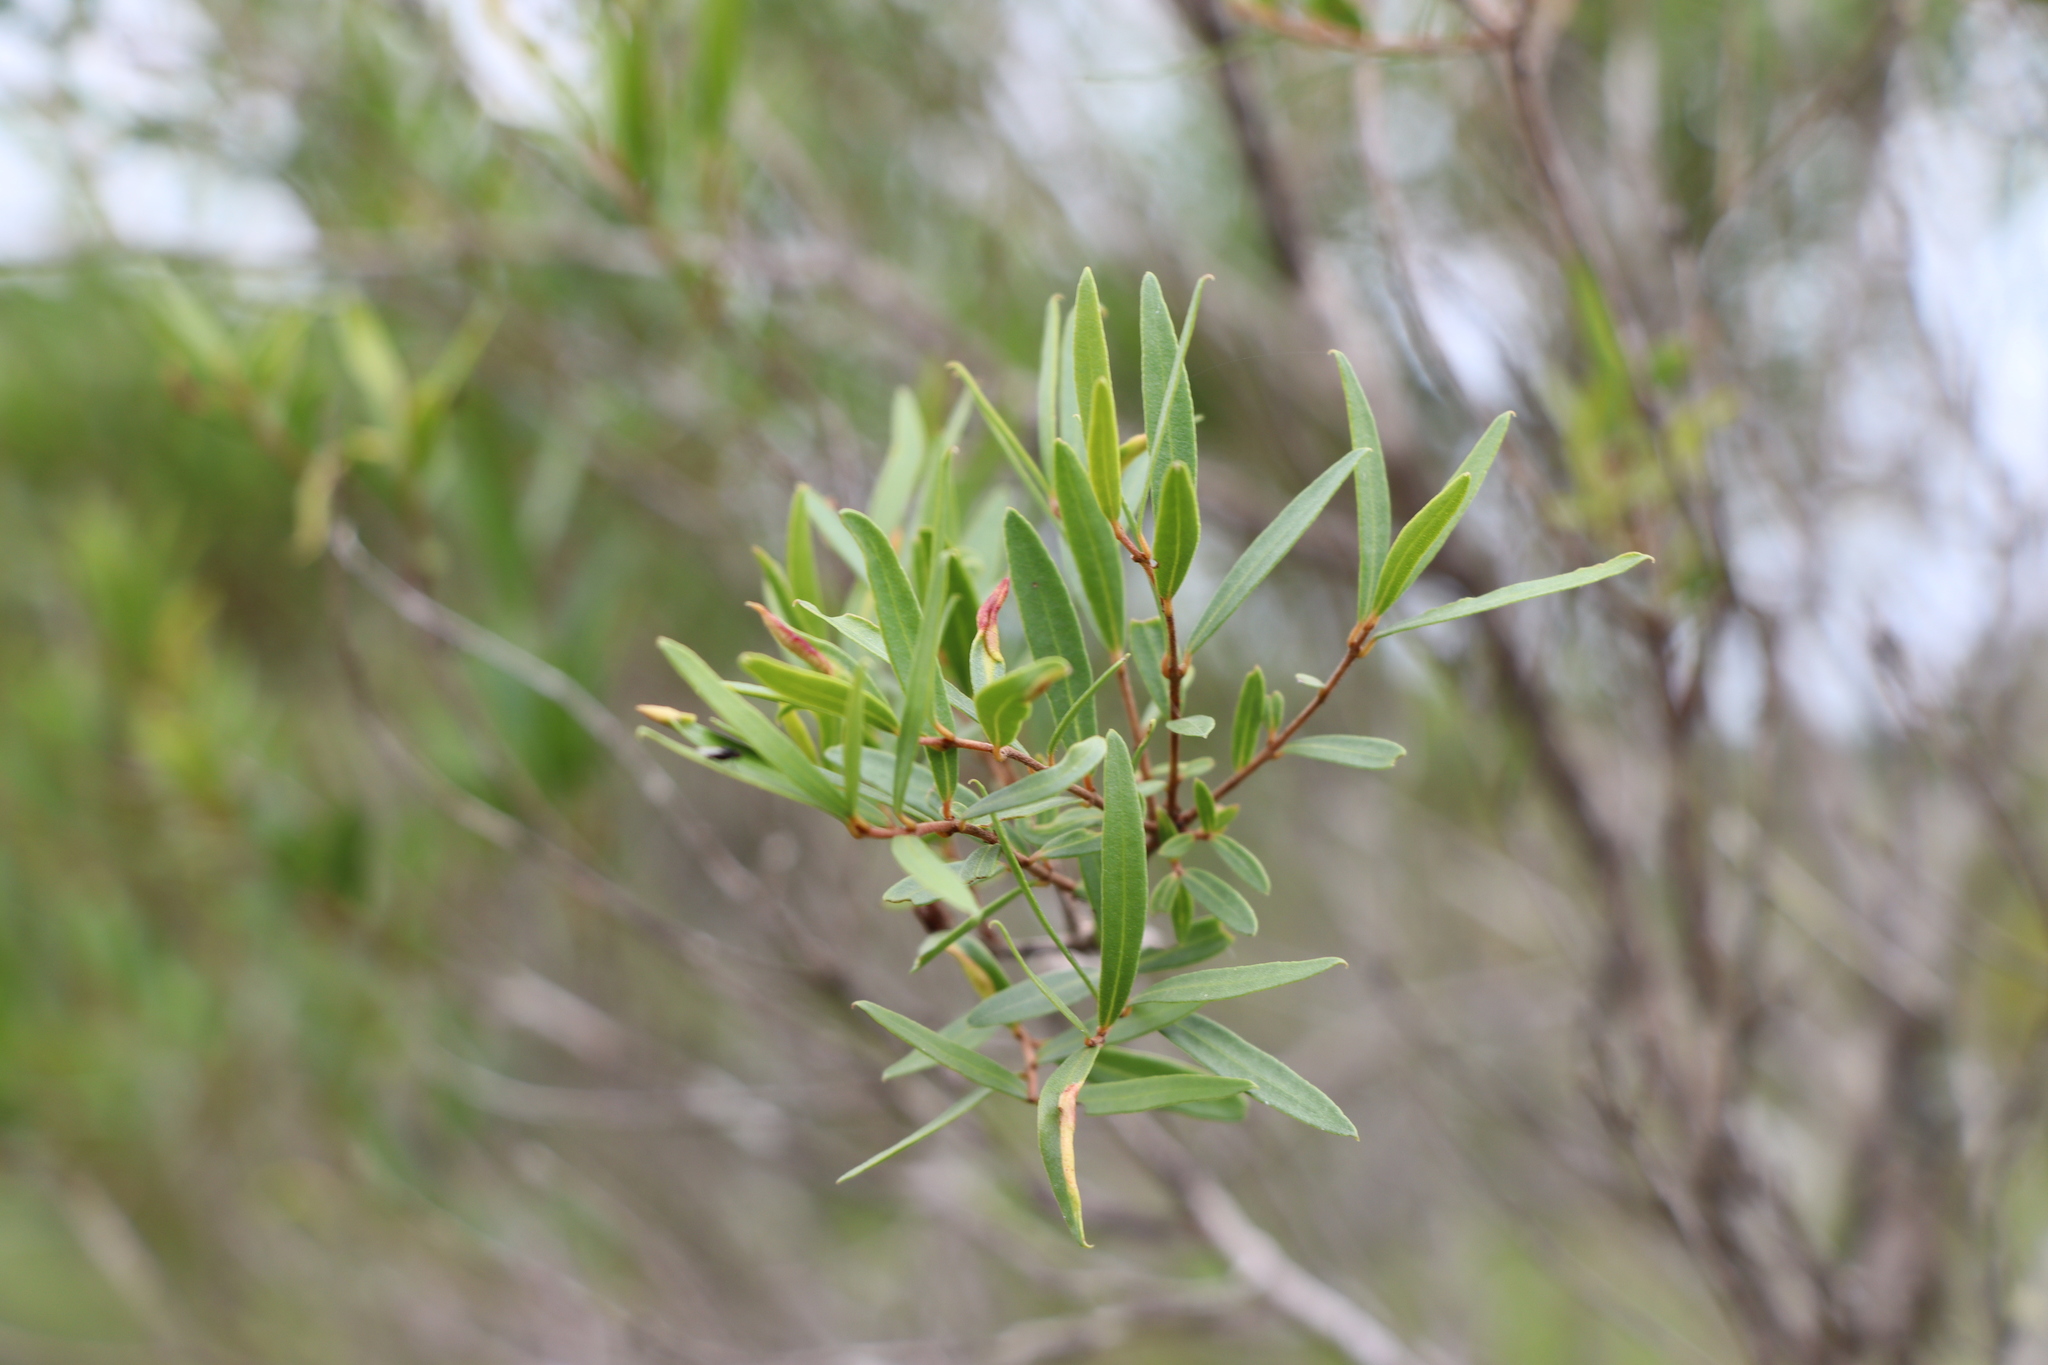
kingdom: Plantae
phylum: Tracheophyta
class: Magnoliopsida
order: Myrtales
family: Myrtaceae
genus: Blepharocalyx
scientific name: Blepharocalyx salicifolius
